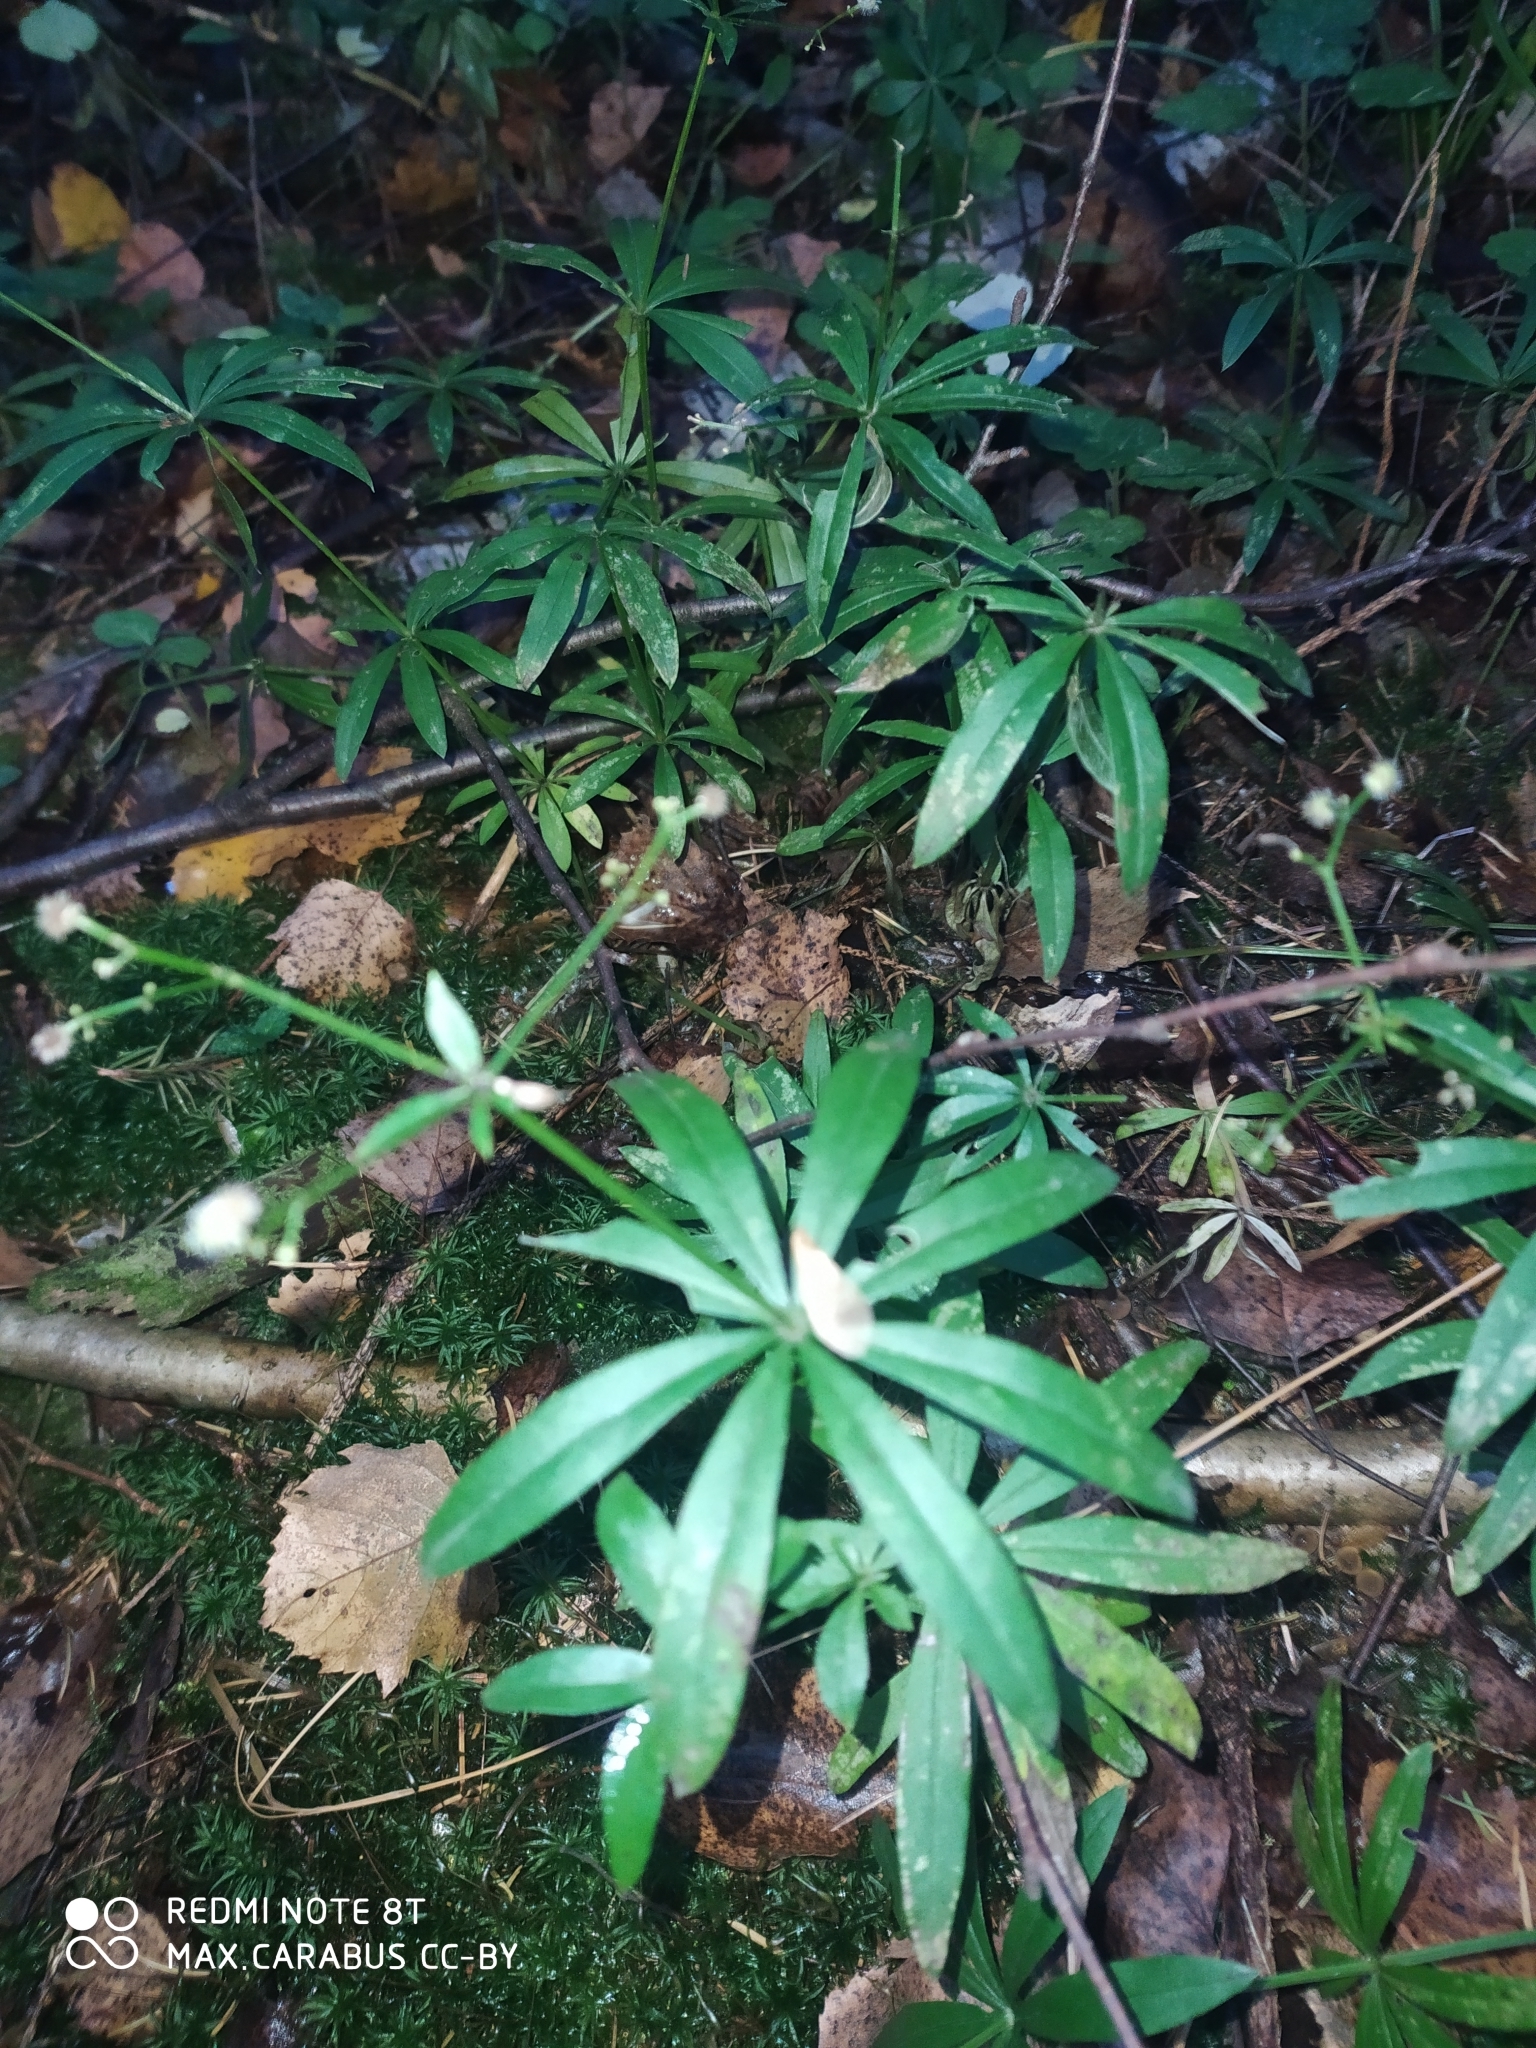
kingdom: Plantae
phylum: Tracheophyta
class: Magnoliopsida
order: Gentianales
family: Rubiaceae
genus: Galium
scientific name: Galium odoratum
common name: Sweet woodruff
